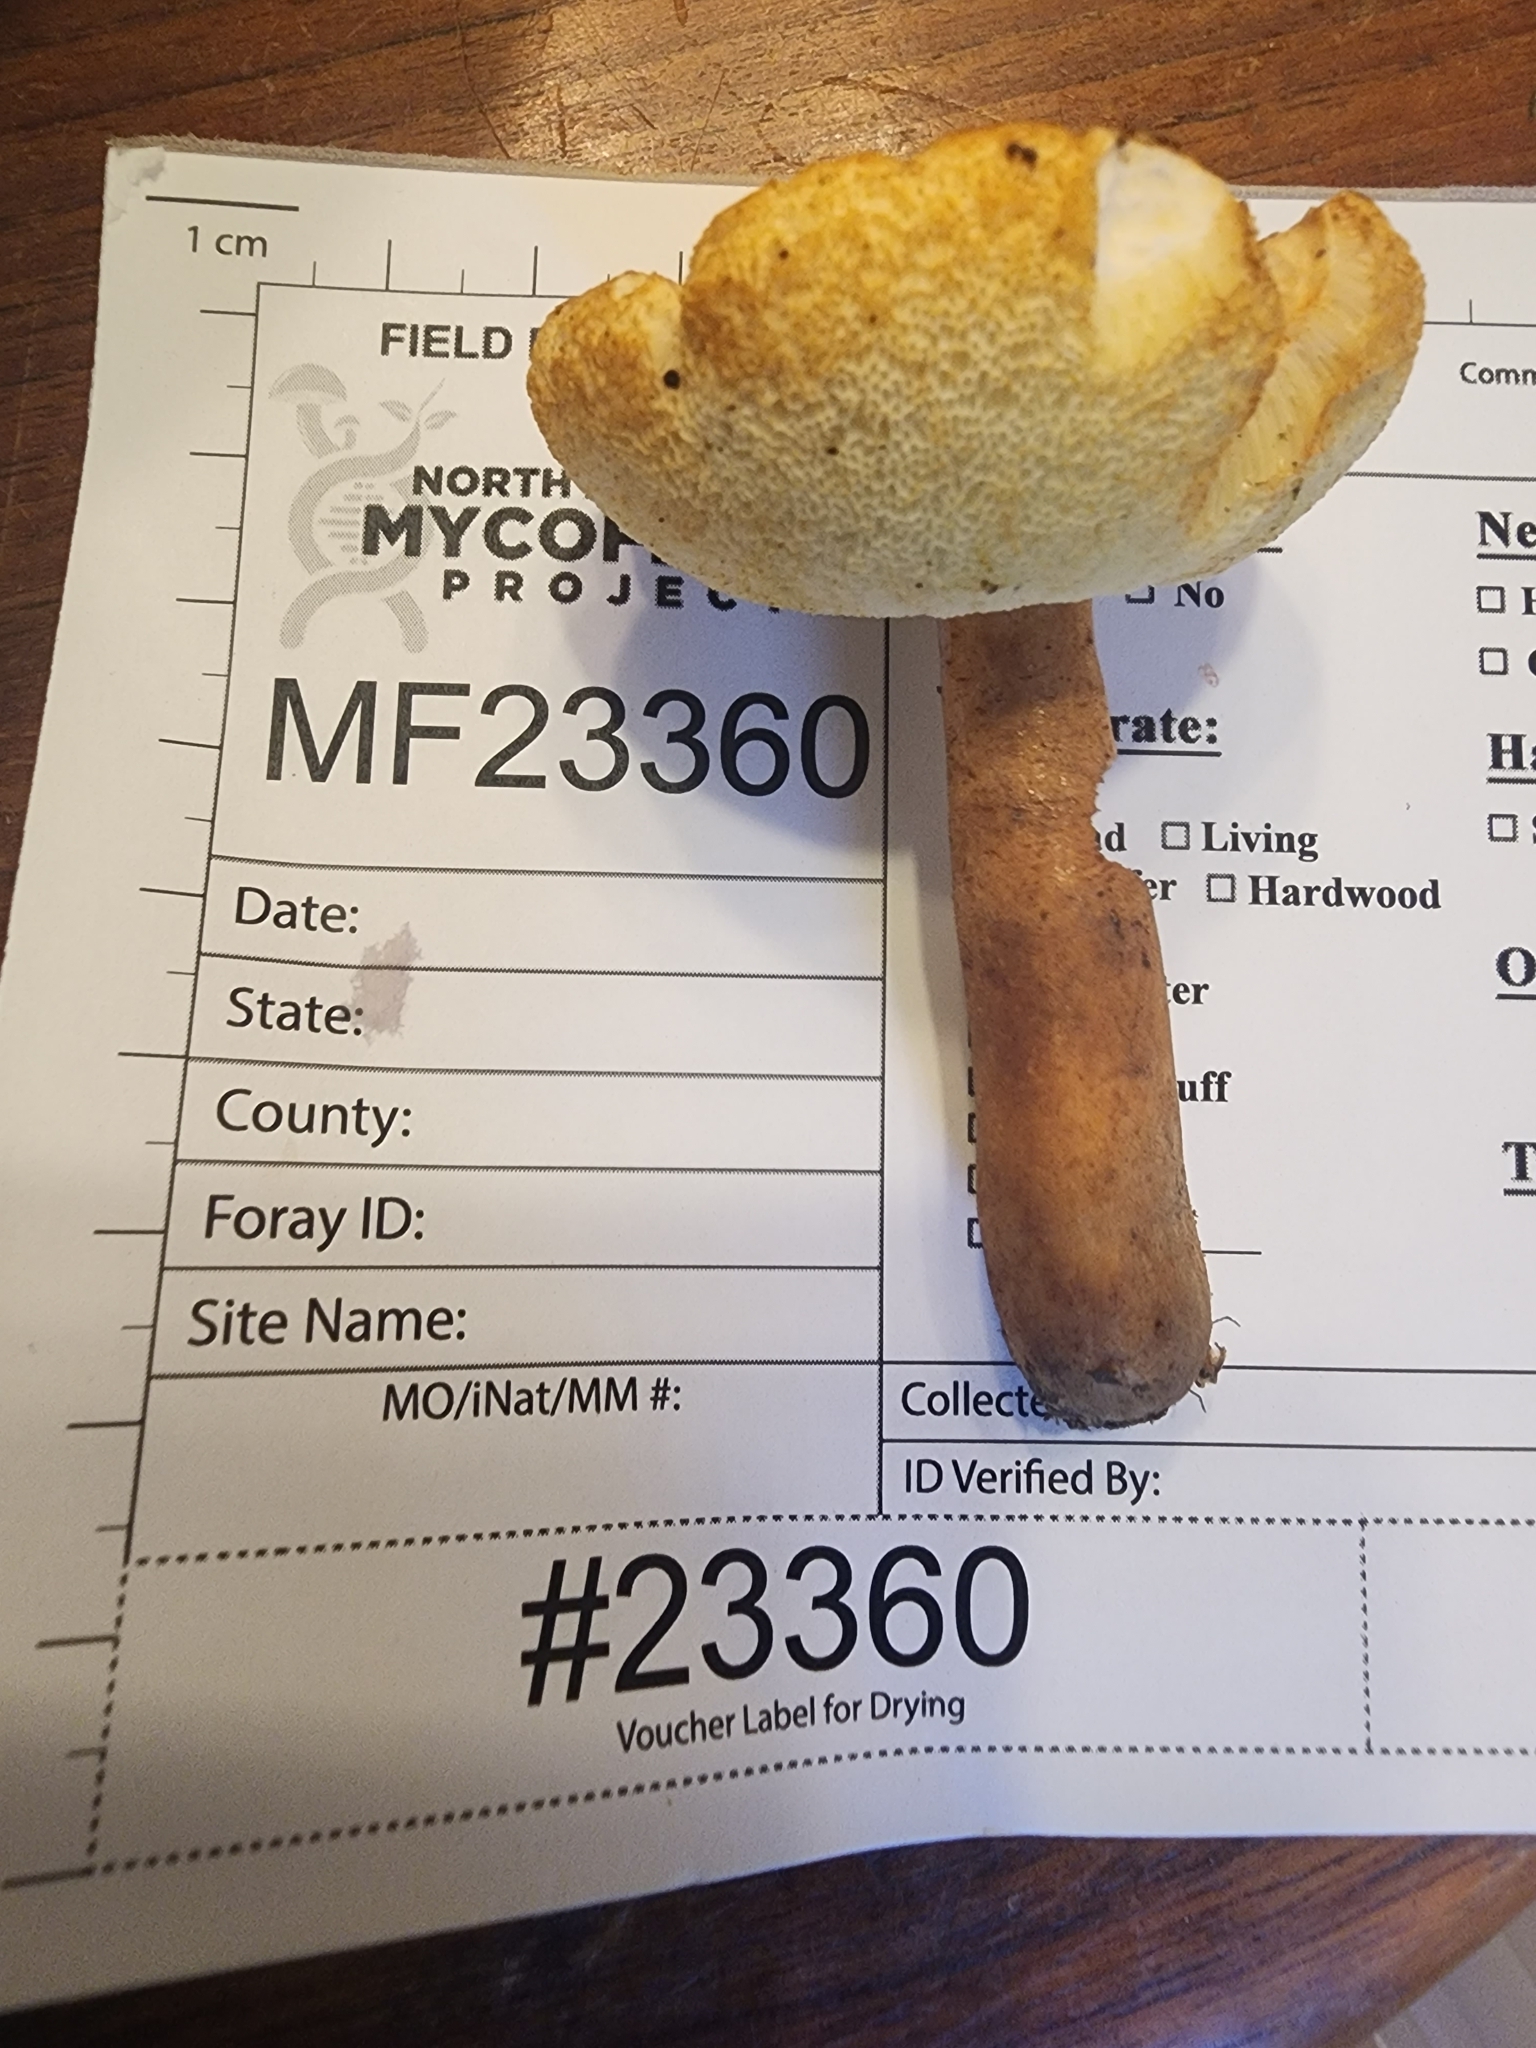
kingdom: Fungi
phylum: Basidiomycota
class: Agaricomycetes
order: Boletales
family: Gyroporaceae
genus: Gyroporus
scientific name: Gyroporus borealis
